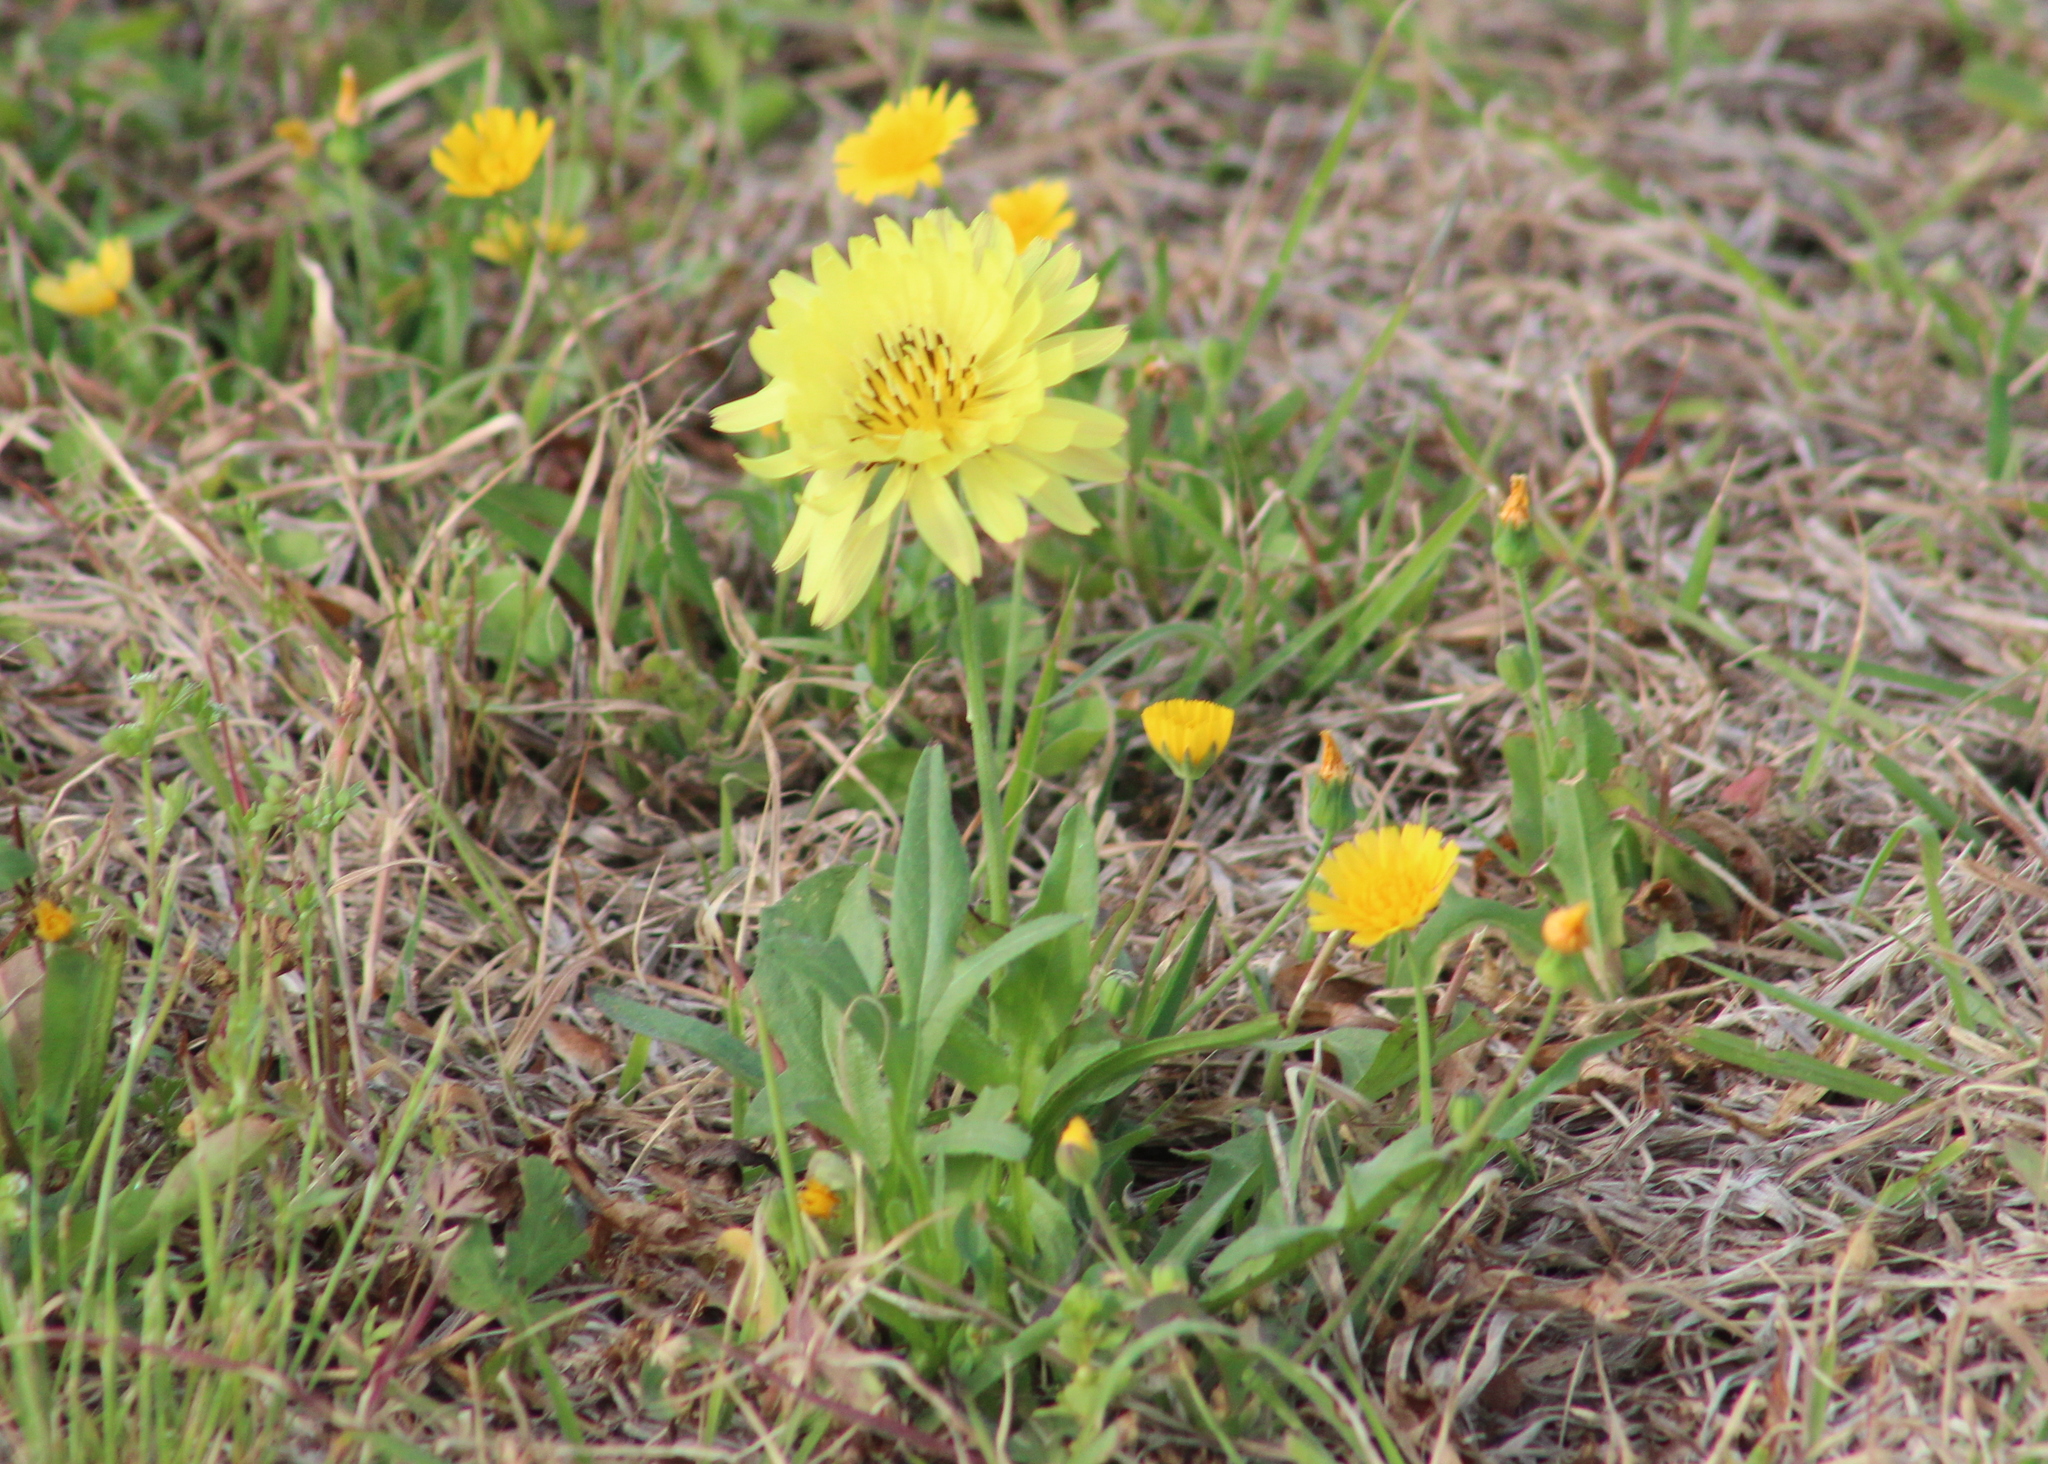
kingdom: Plantae
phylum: Tracheophyta
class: Magnoliopsida
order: Asterales
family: Asteraceae
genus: Pyrrhopappus
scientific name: Pyrrhopappus pauciflorus
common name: Texas false dandelion
